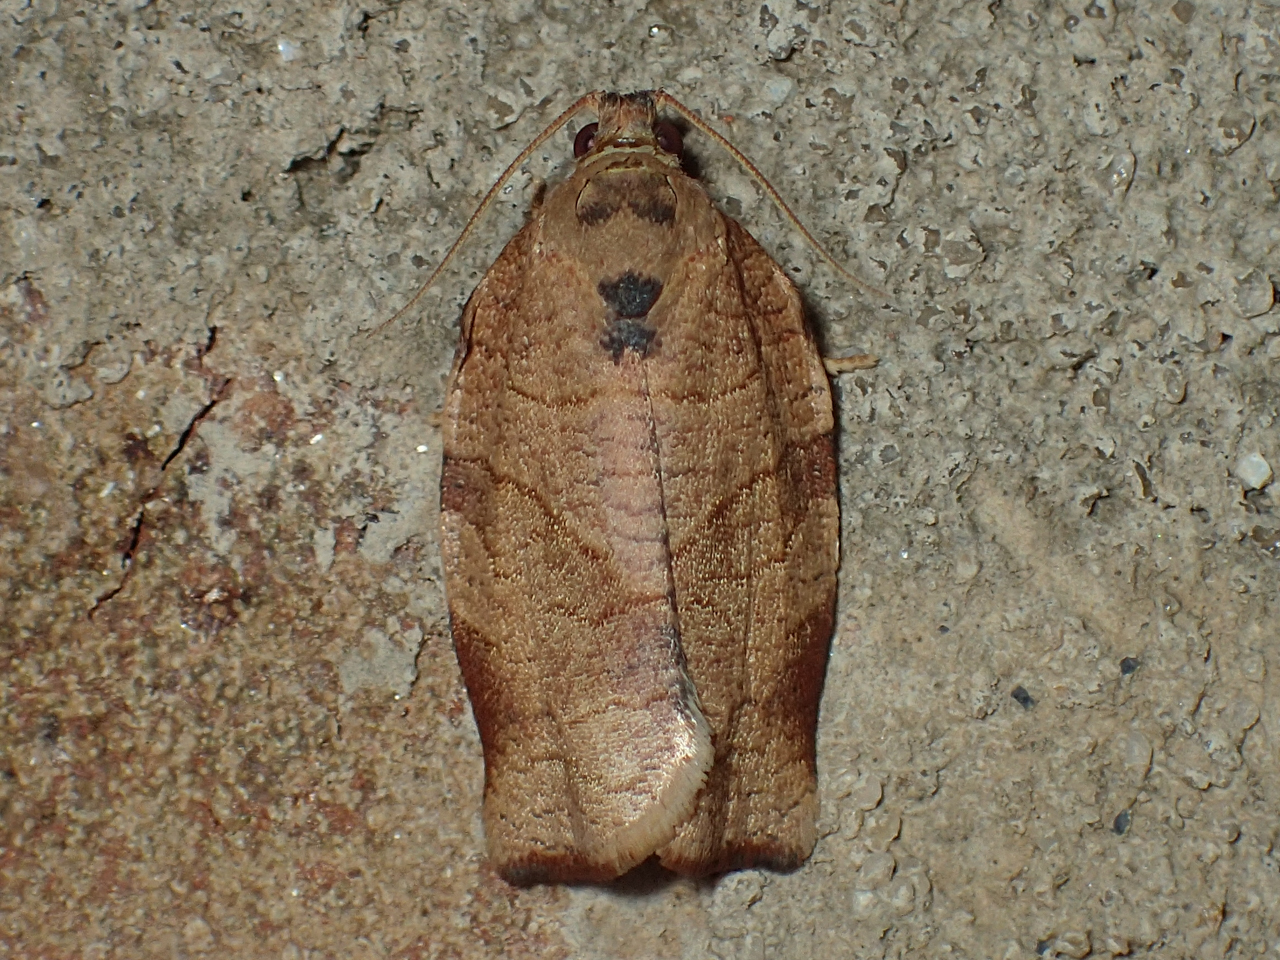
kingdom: Animalia
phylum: Arthropoda
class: Insecta
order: Lepidoptera
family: Tortricidae
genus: Choristoneura
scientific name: Choristoneura rosaceana
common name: Oblique-banded leafroller moth
